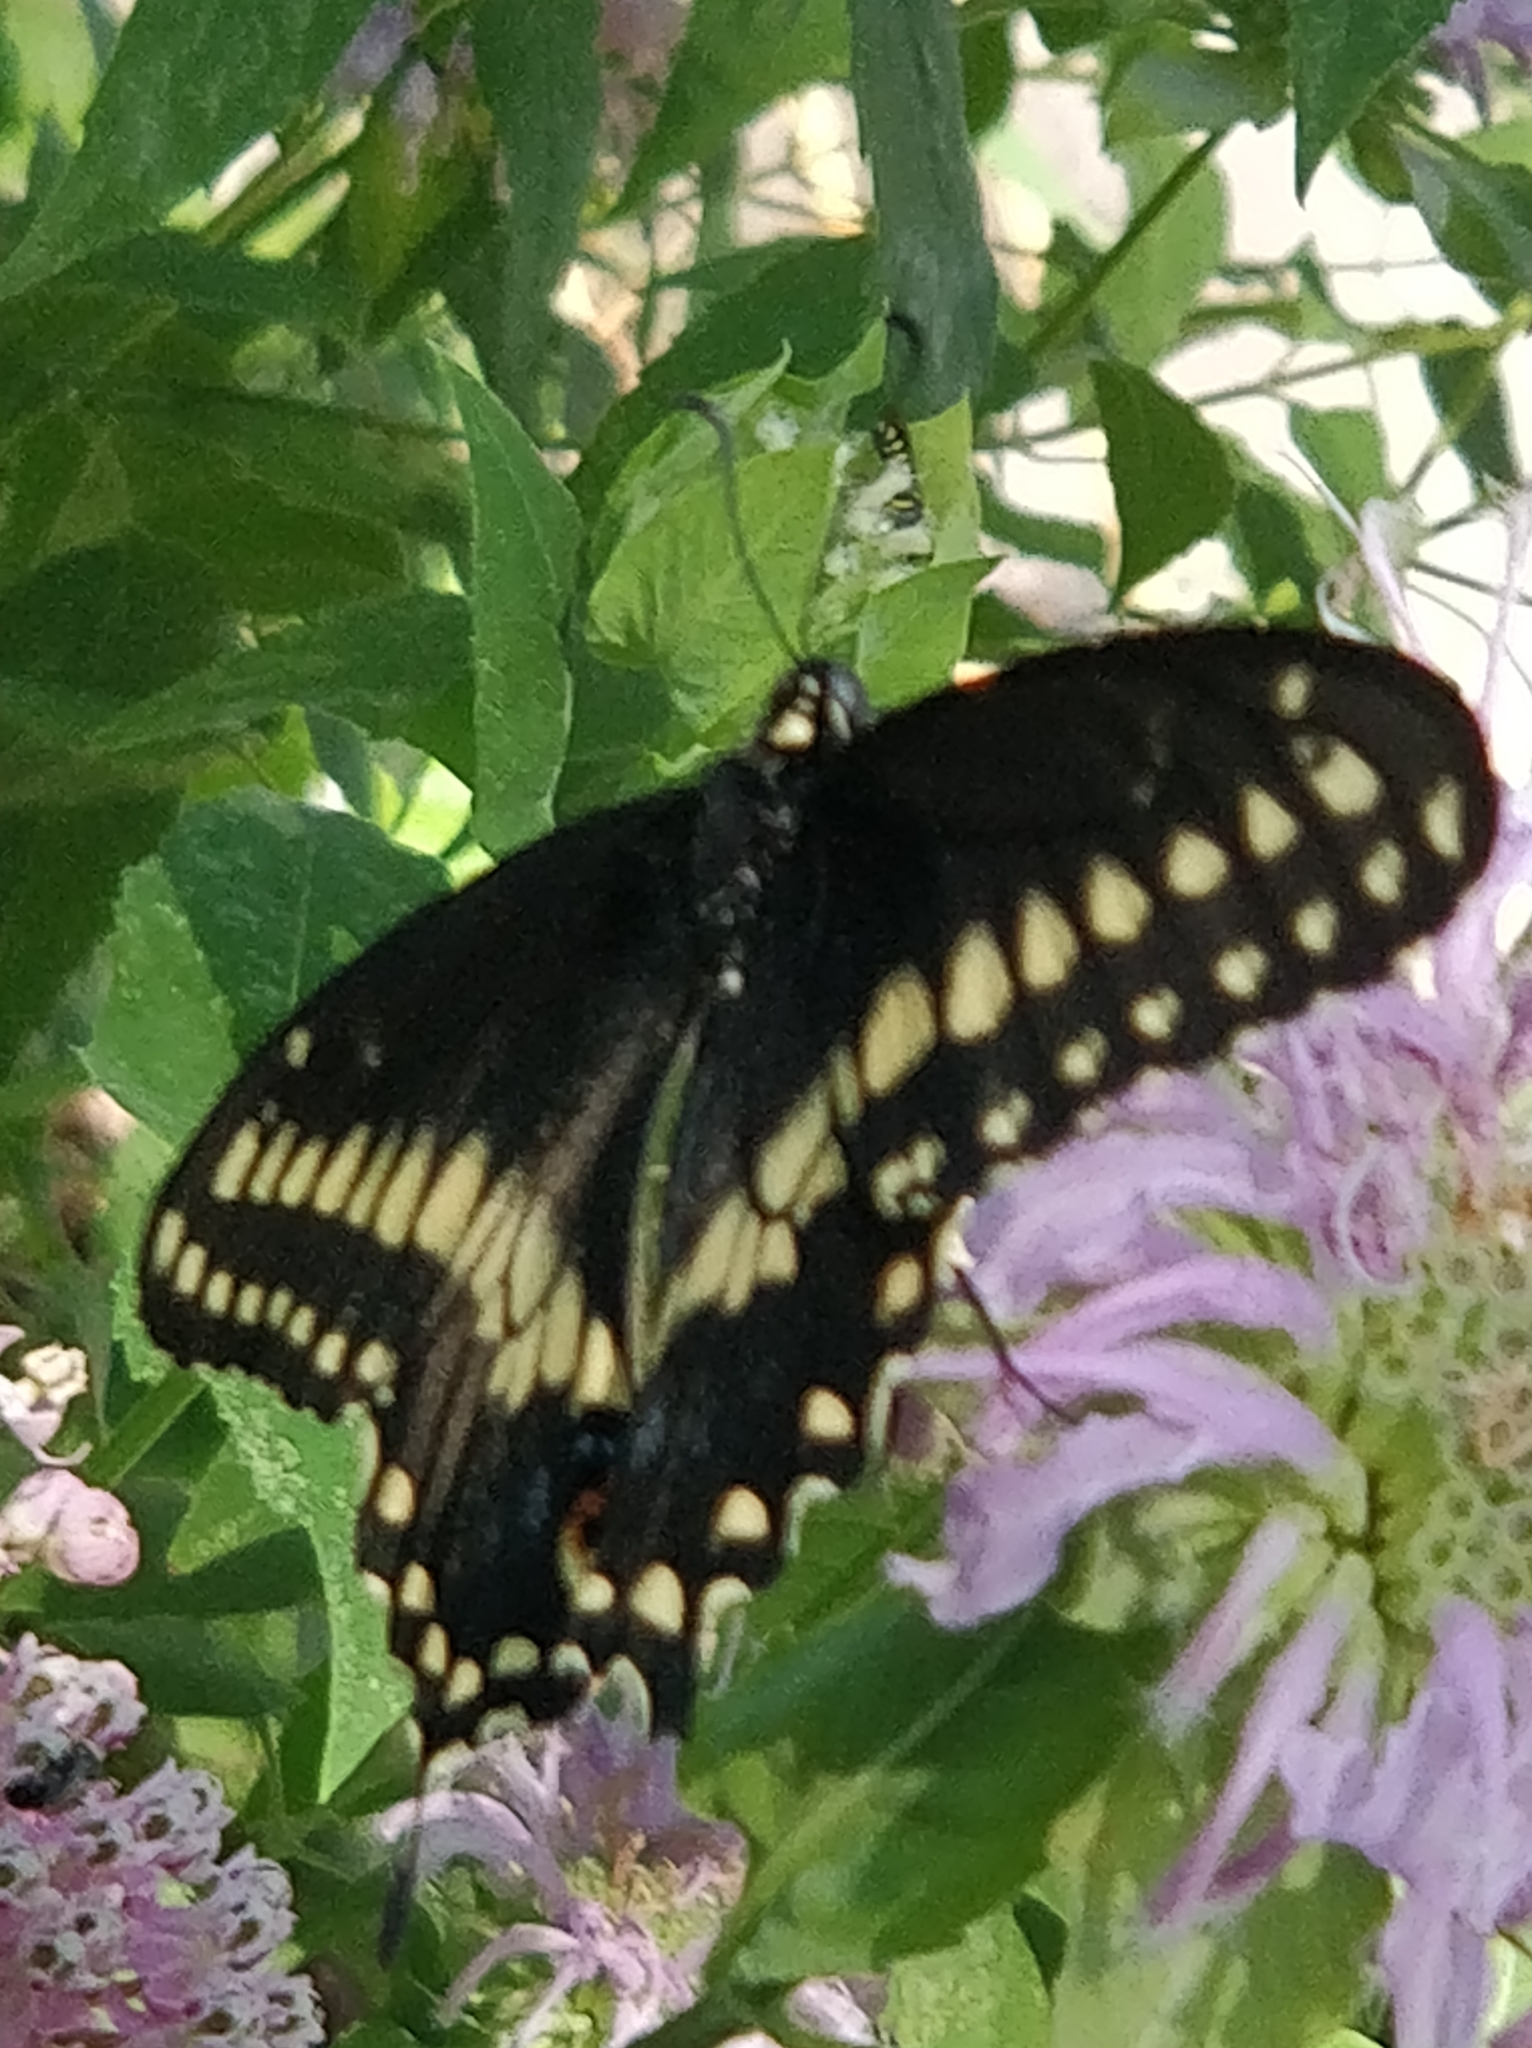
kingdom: Animalia
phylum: Arthropoda
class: Insecta
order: Lepidoptera
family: Papilionidae
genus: Papilio
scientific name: Papilio polyxenes
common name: Black swallowtail
